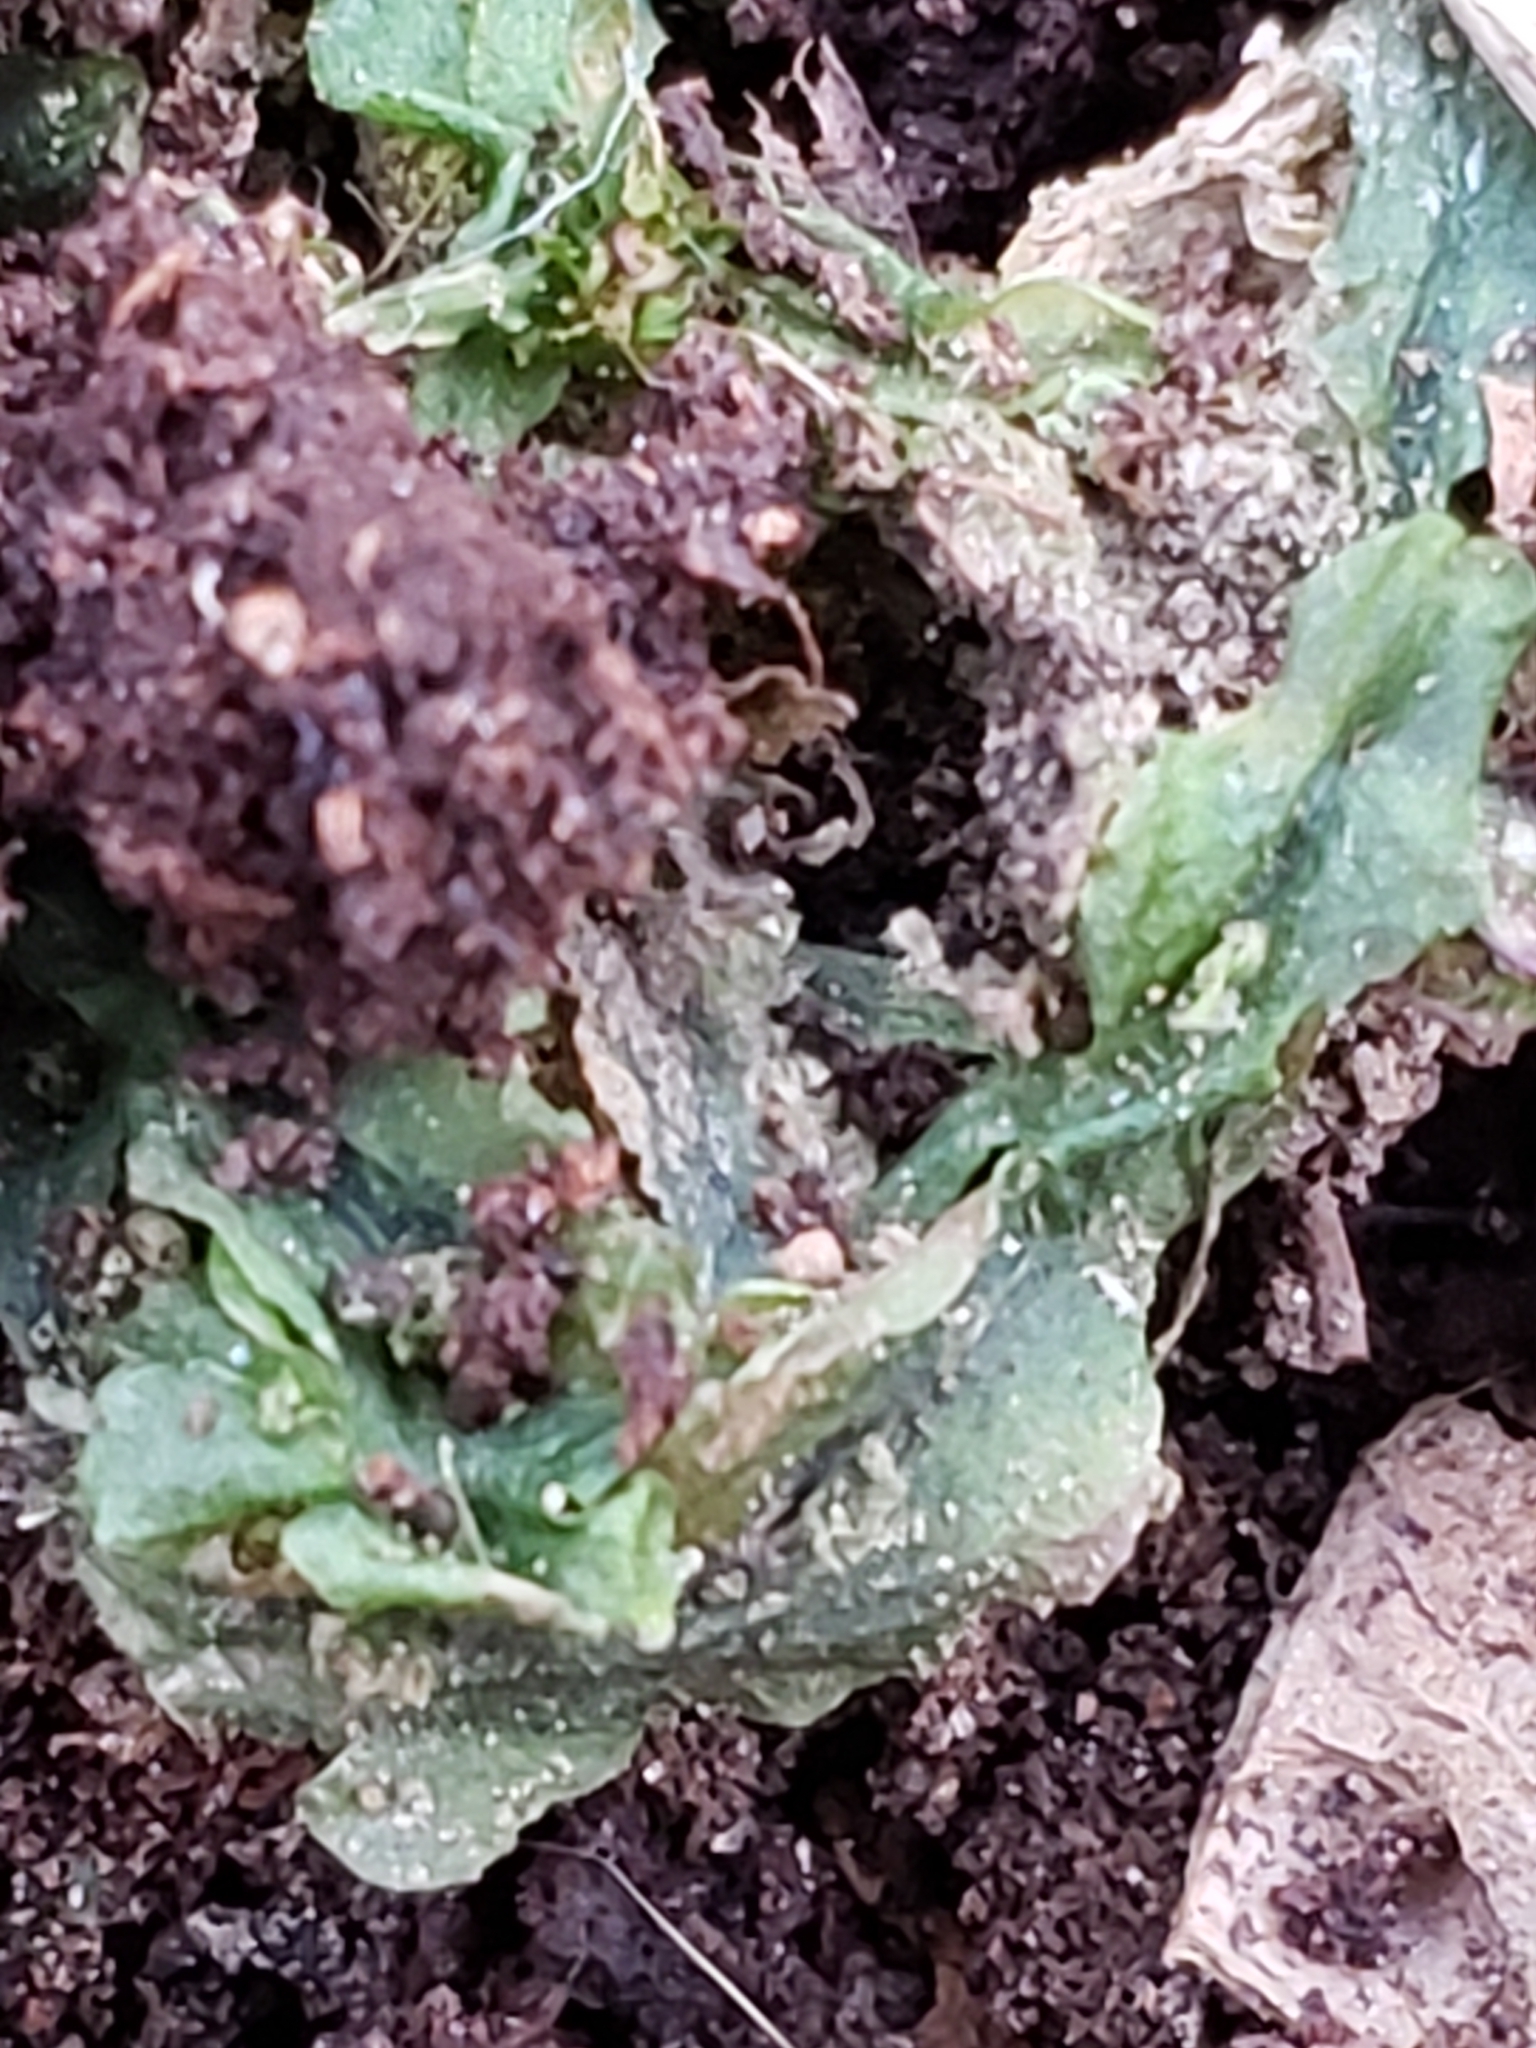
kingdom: Plantae
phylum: Marchantiophyta
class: Jungermanniopsida
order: Pallaviciniales
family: Pallaviciniaceae
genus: Pallavicinia
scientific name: Pallavicinia lyellii
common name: Veilwort
